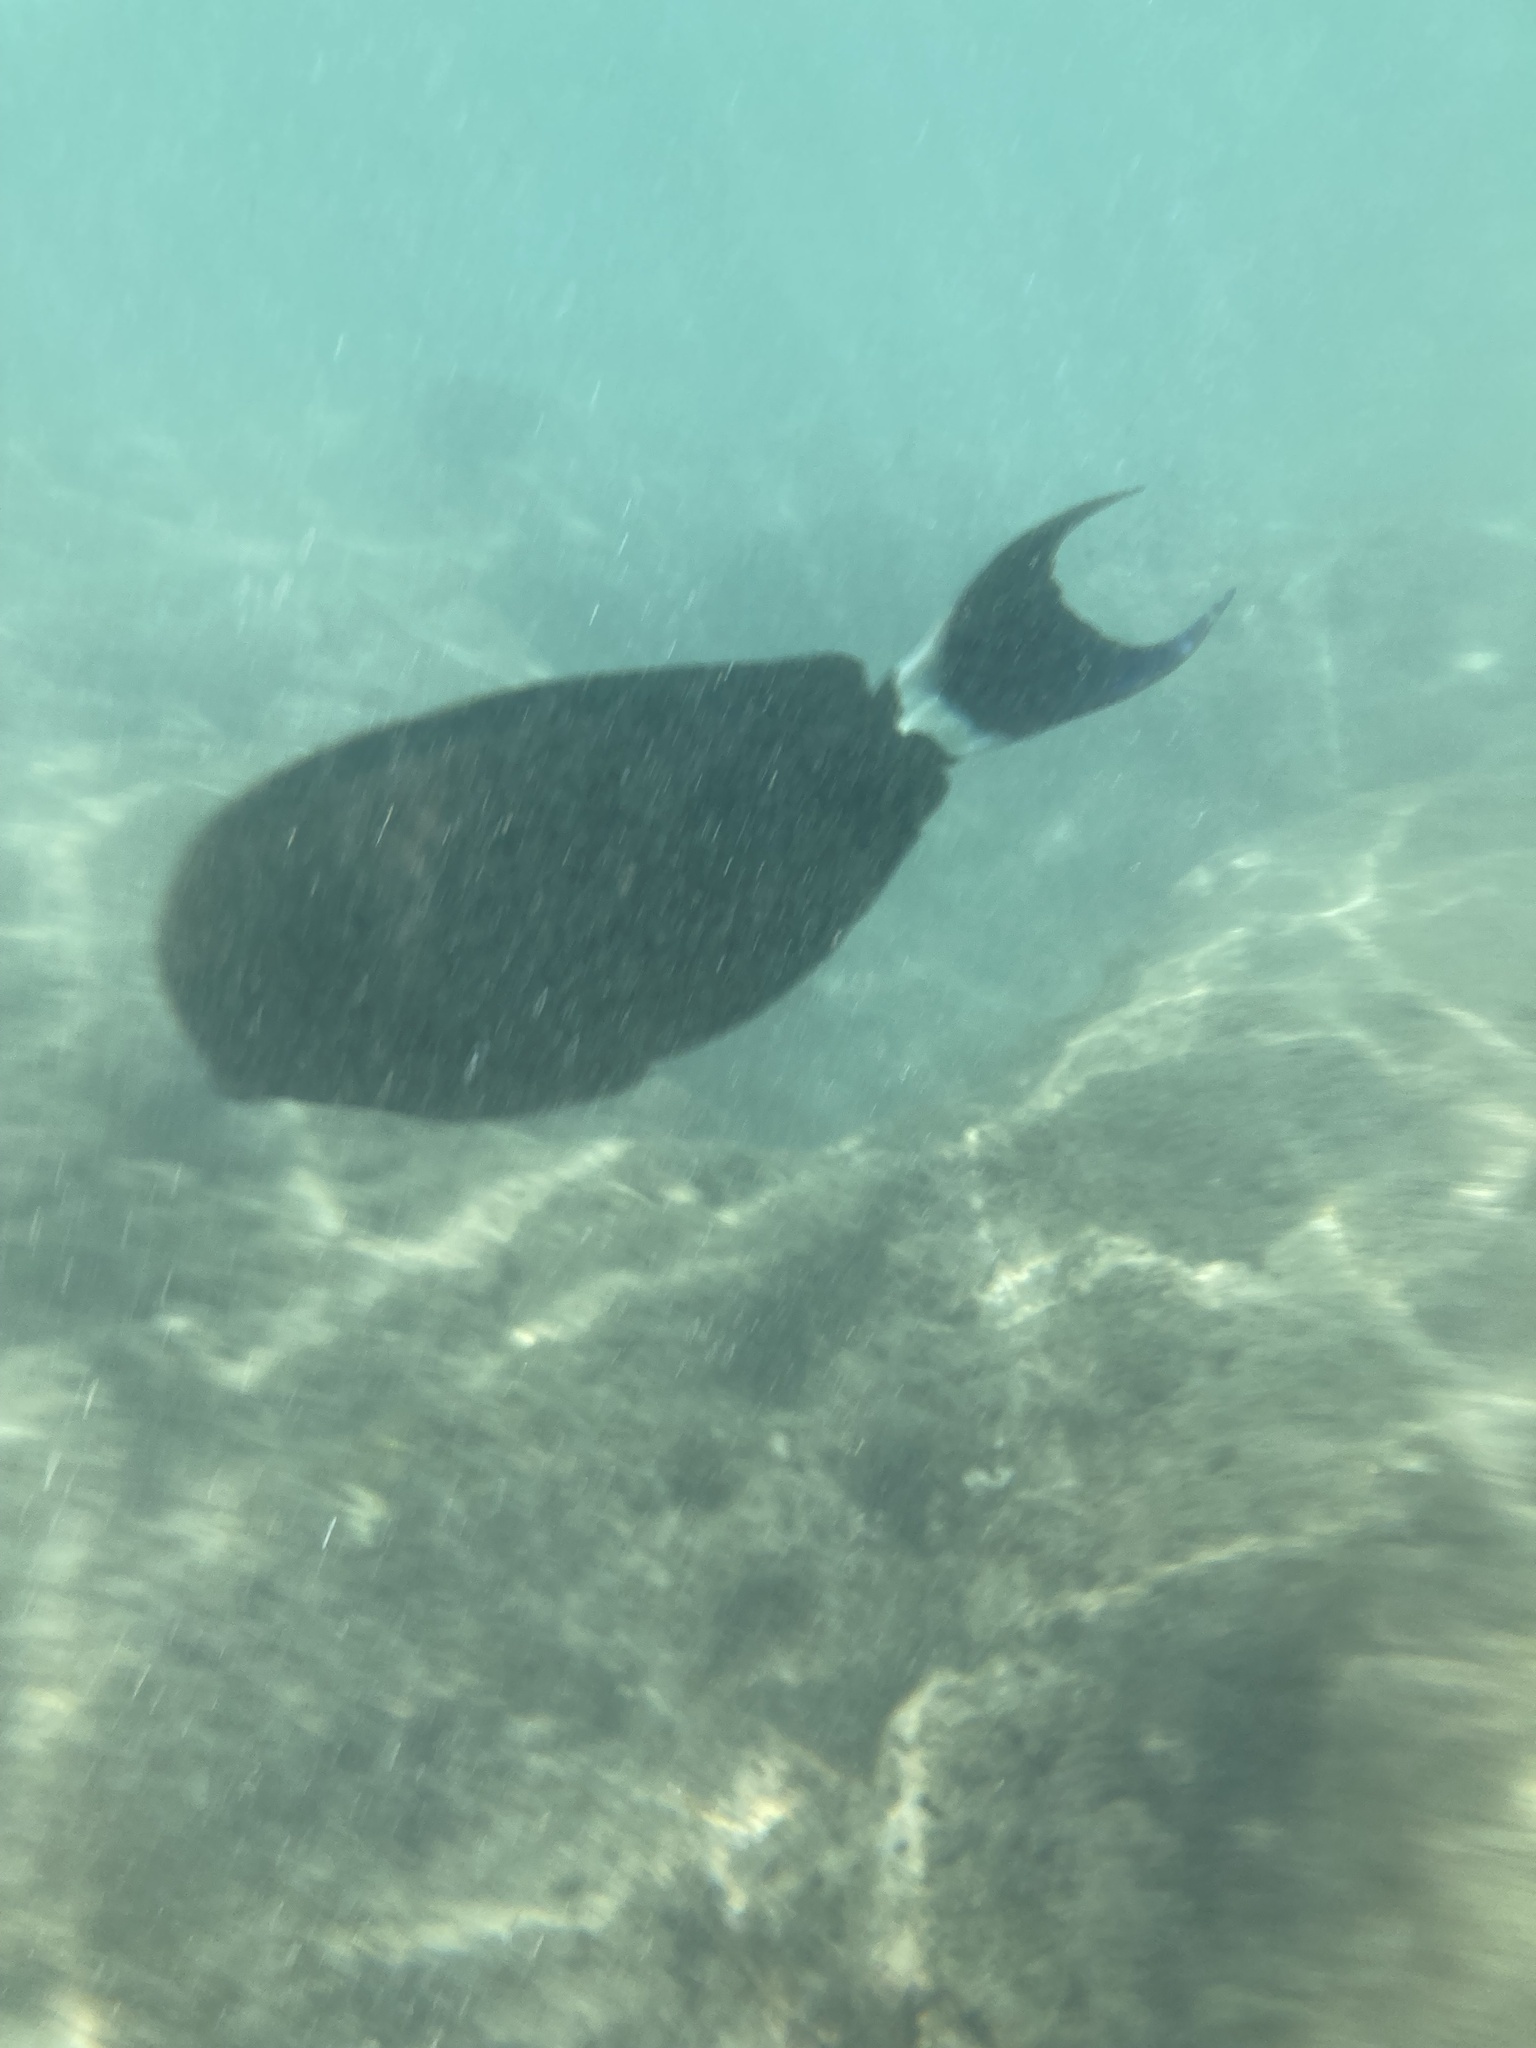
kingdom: Animalia
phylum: Chordata
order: Perciformes
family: Acanthuridae
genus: Acanthurus
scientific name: Acanthurus blochii
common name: Blue-banded pualu
